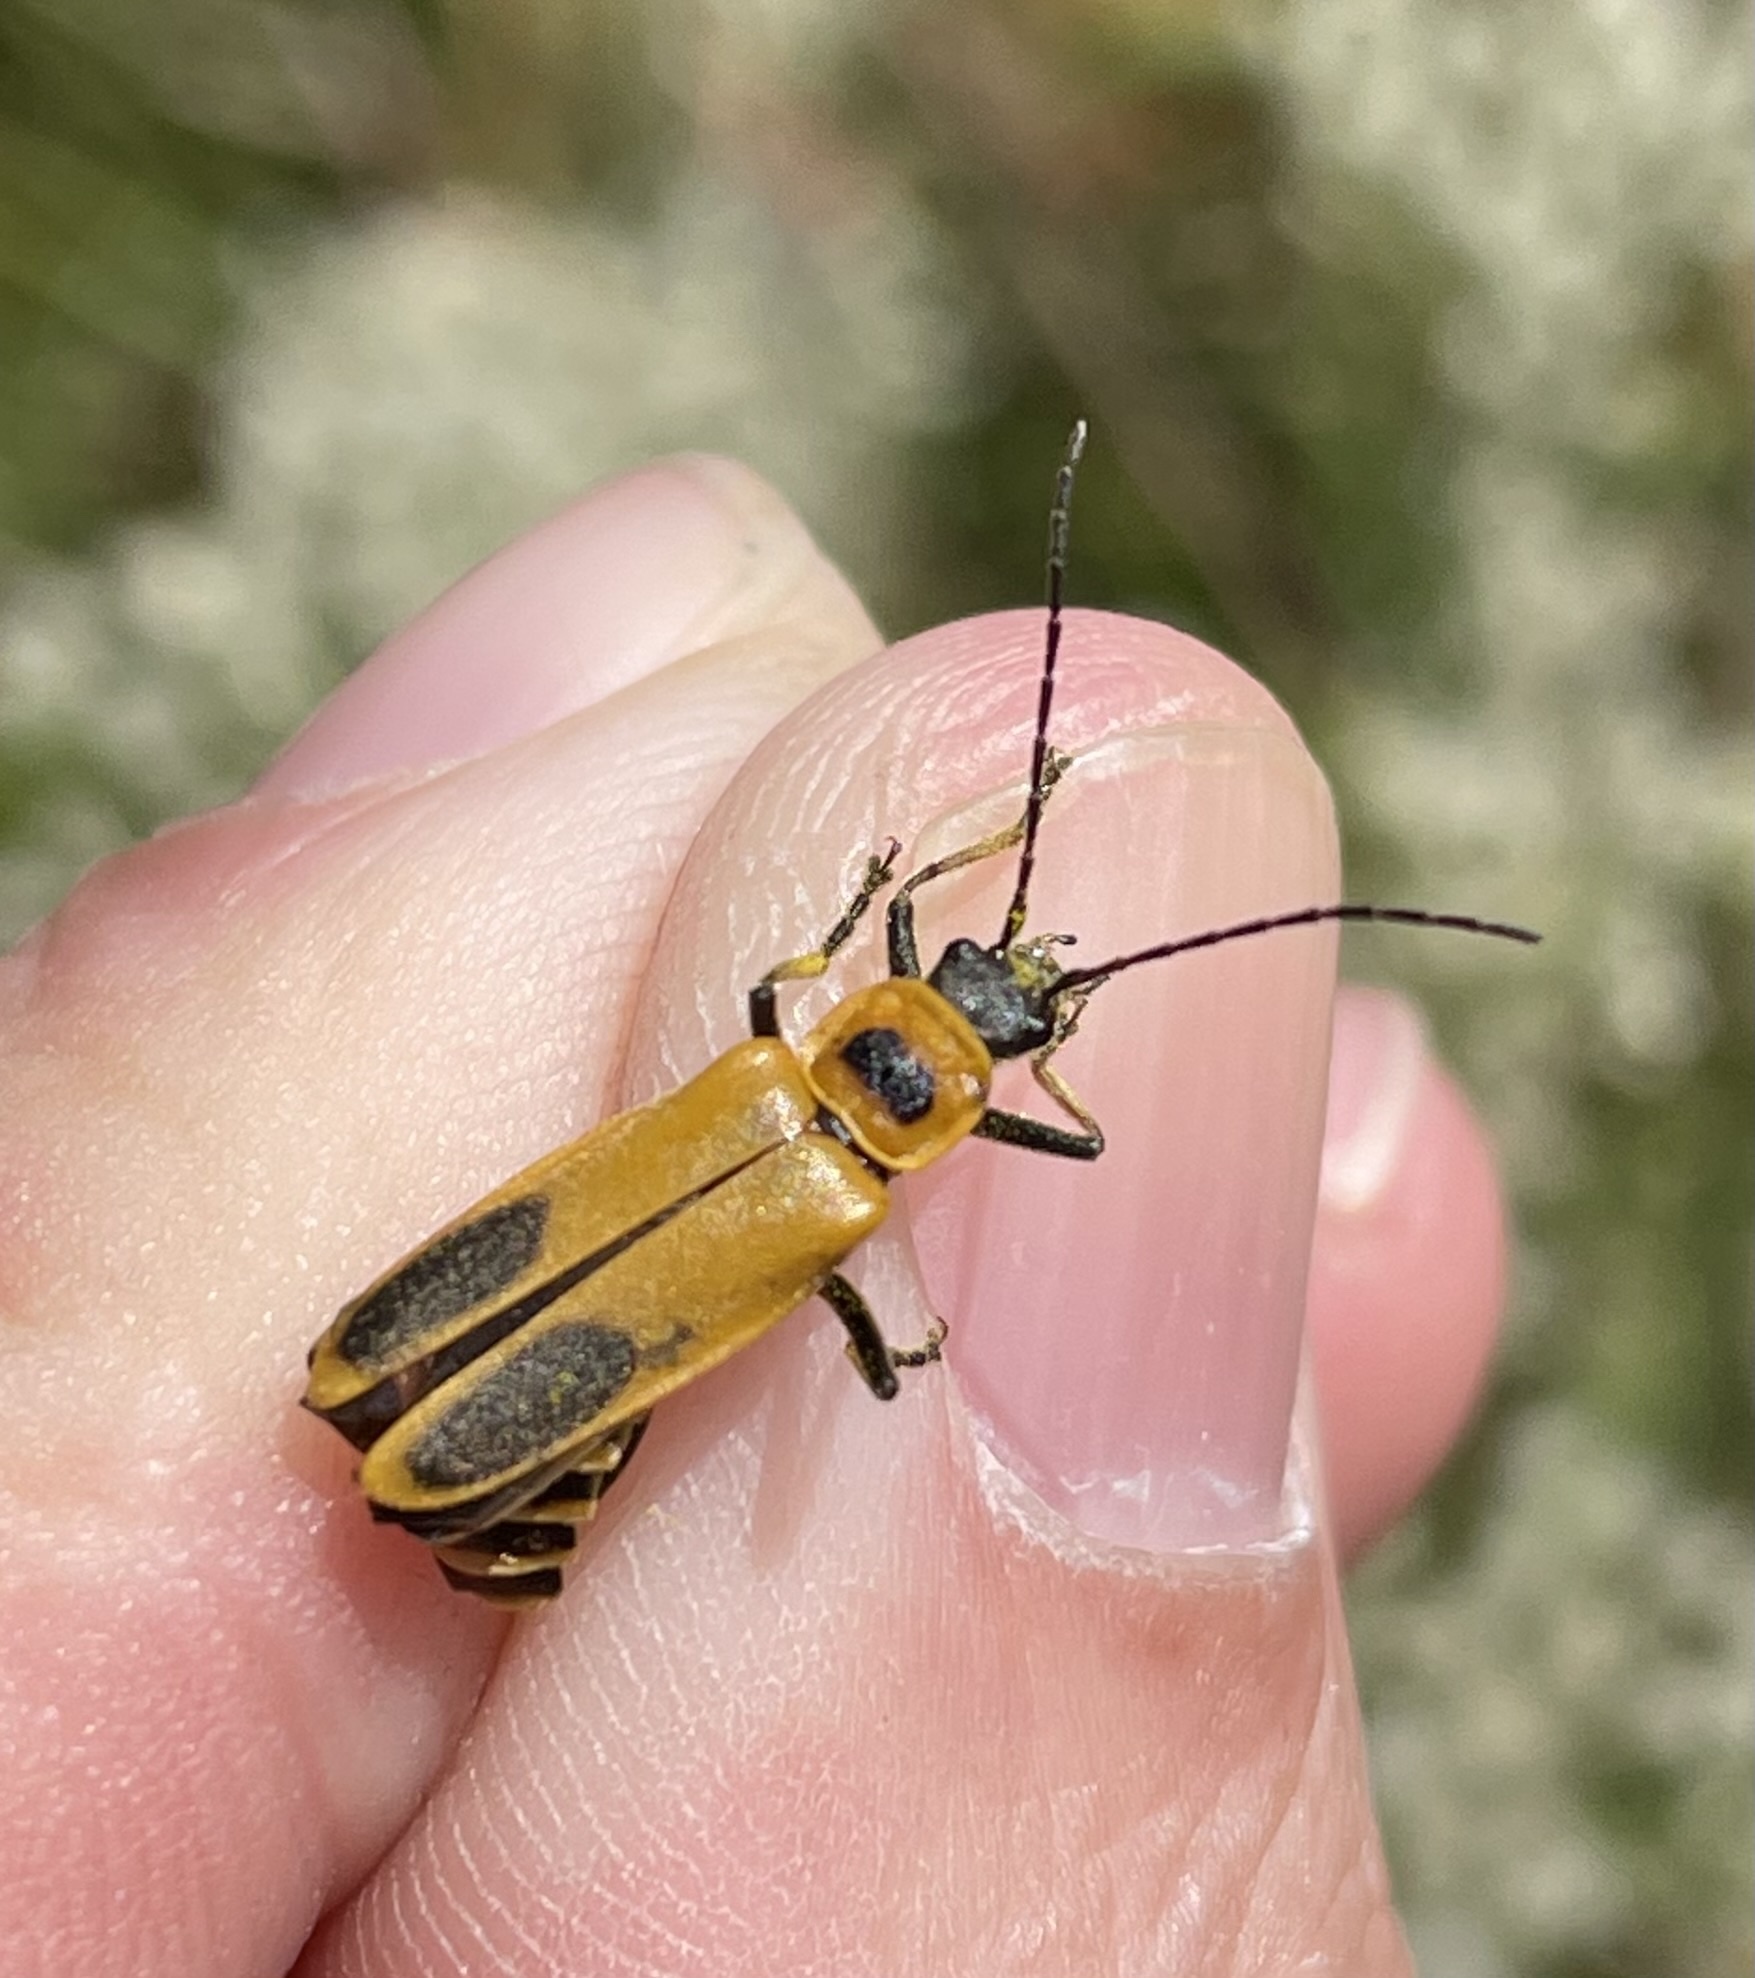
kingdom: Animalia
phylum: Arthropoda
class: Insecta
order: Coleoptera
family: Cantharidae
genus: Chauliognathus
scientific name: Chauliognathus pensylvanicus
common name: Goldenrod soldier beetle
